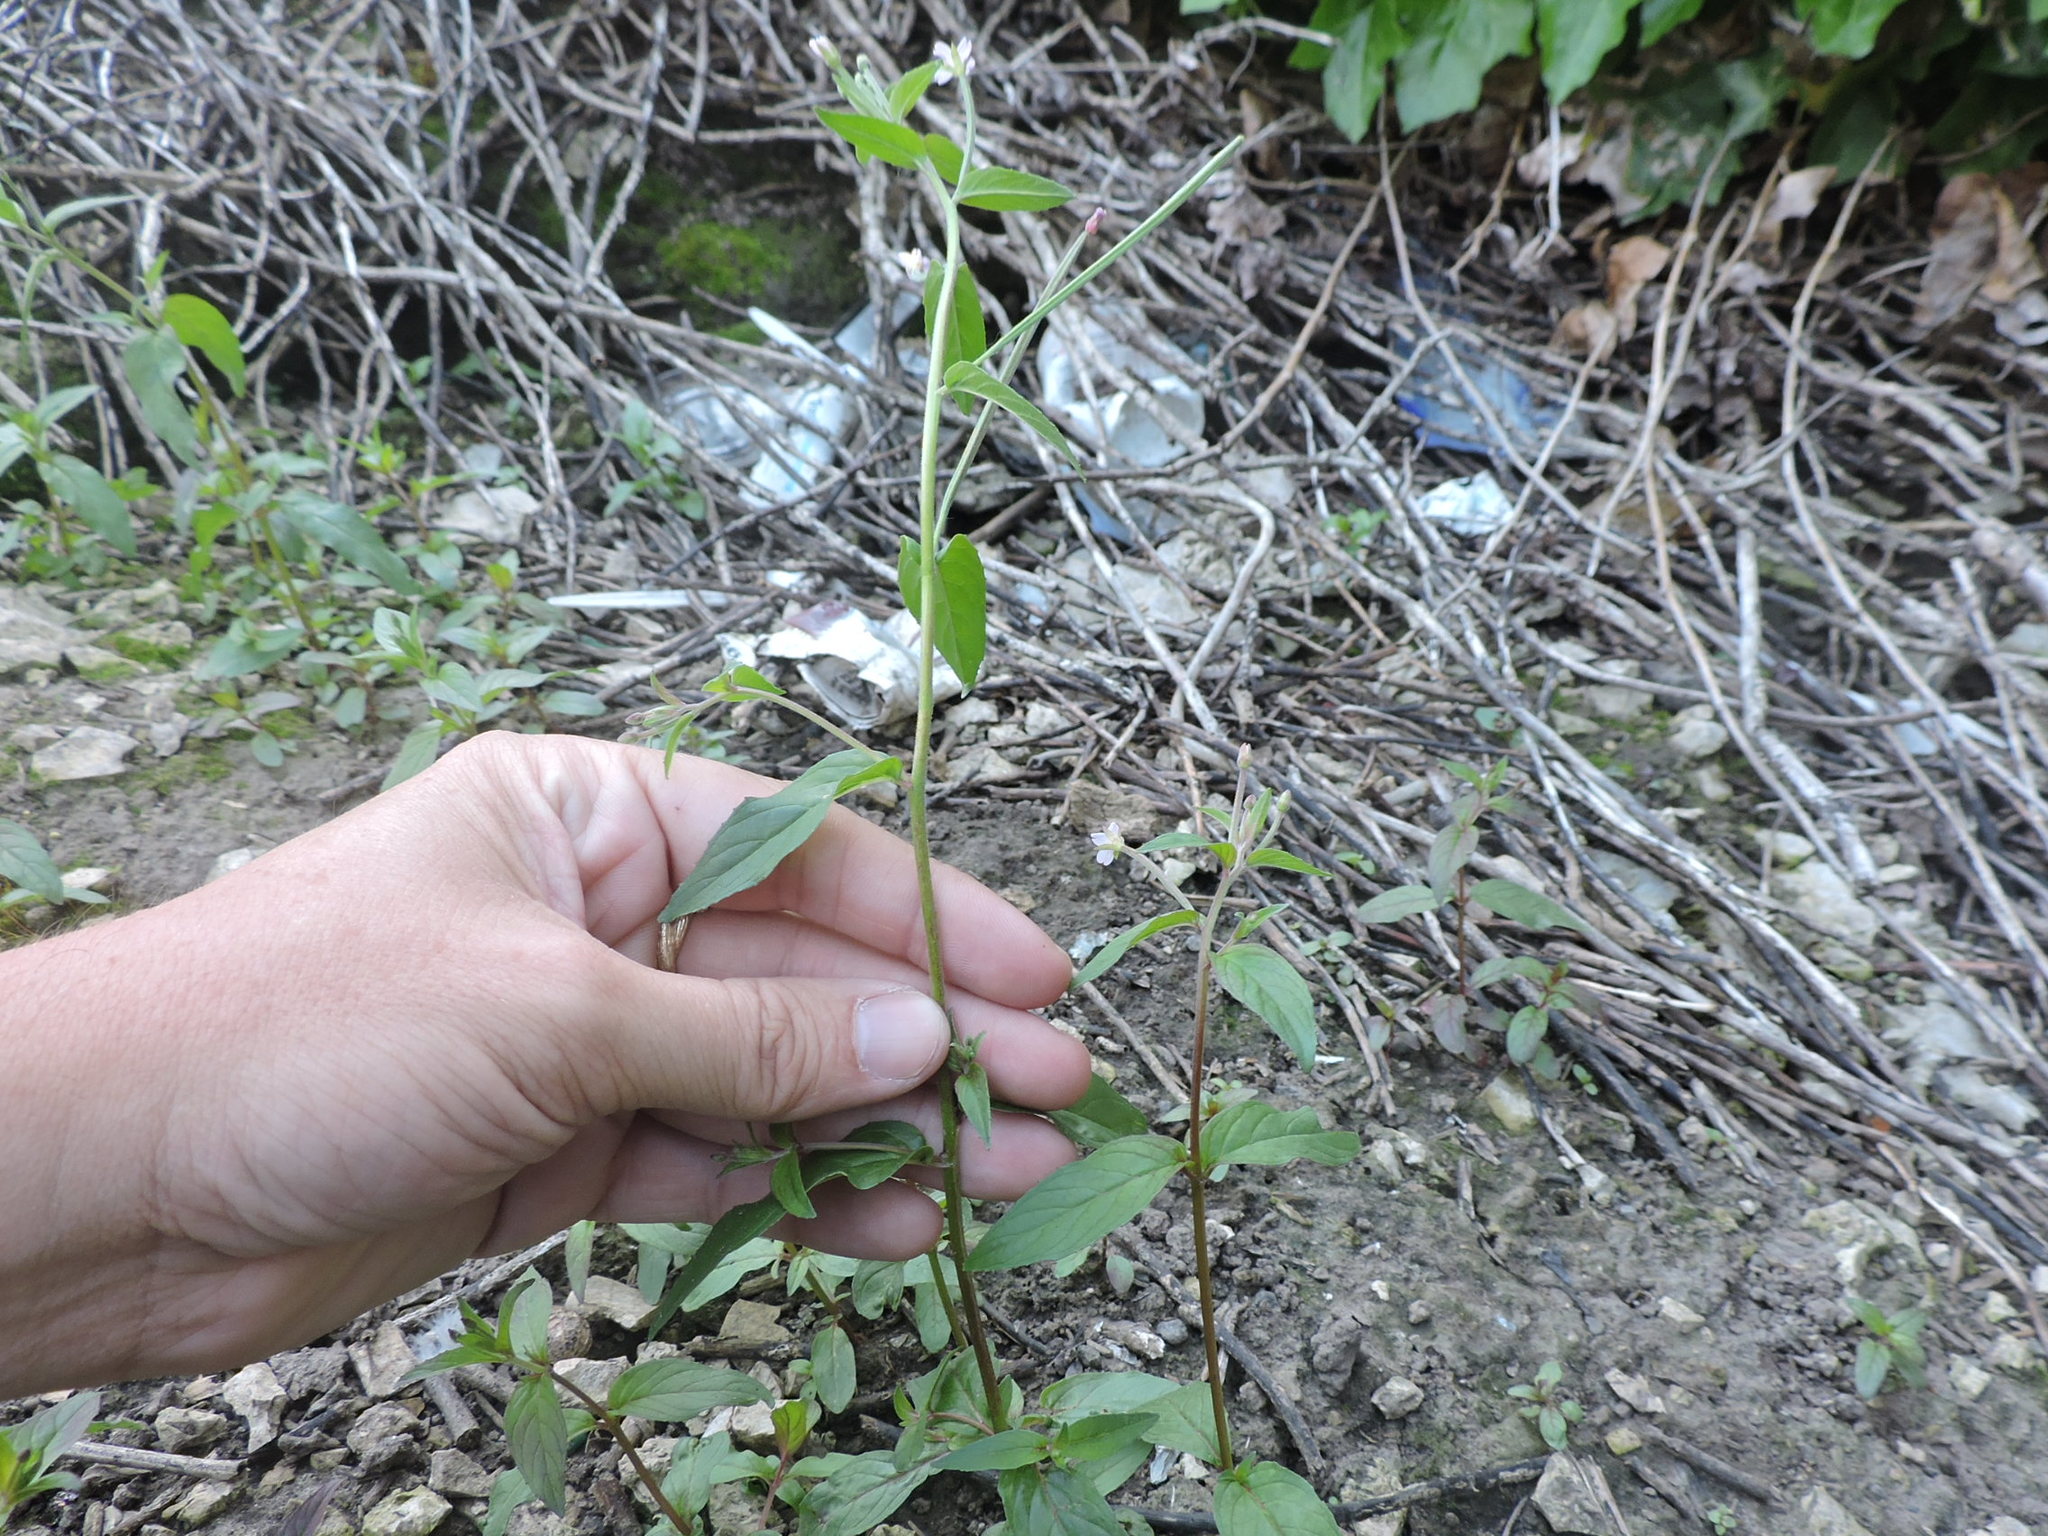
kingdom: Plantae
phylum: Tracheophyta
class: Magnoliopsida
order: Myrtales
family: Onagraceae
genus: Epilobium
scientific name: Epilobium ciliatum
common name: American willowherb
